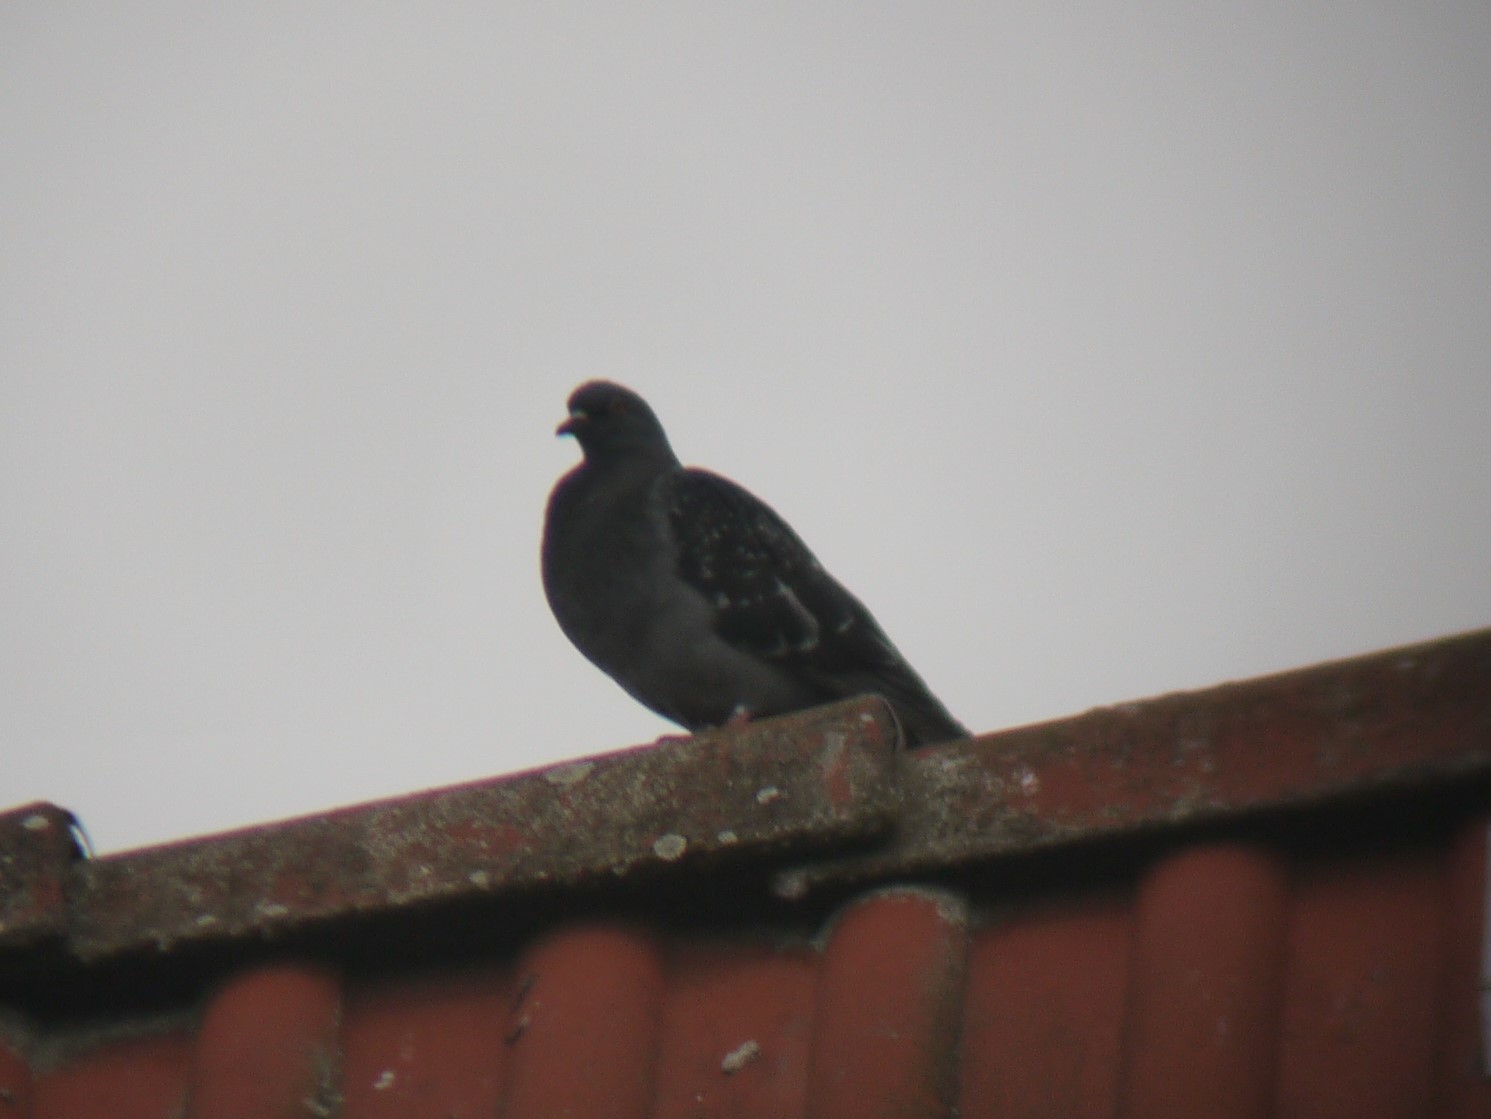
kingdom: Animalia
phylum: Chordata
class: Aves
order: Columbiformes
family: Columbidae
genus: Columba
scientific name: Columba livia
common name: Rock pigeon
